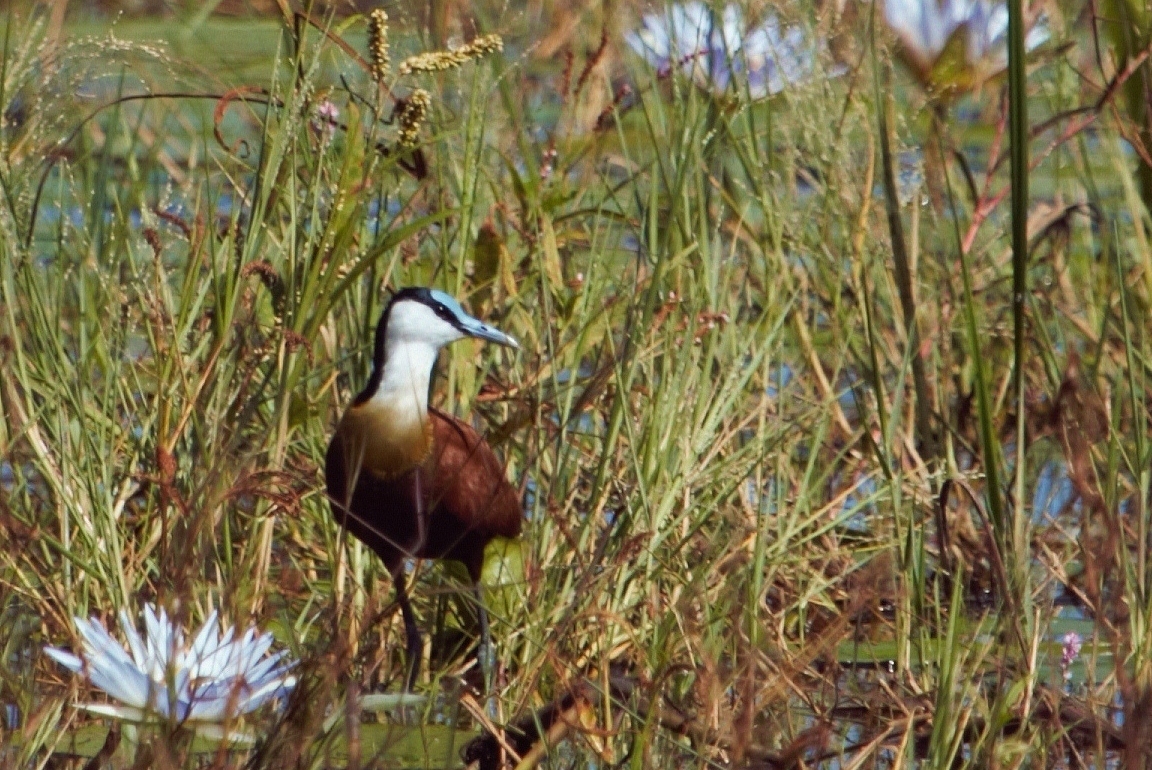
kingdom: Animalia
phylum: Chordata
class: Aves
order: Charadriiformes
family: Jacanidae
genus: Actophilornis
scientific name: Actophilornis africanus
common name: African jacana
